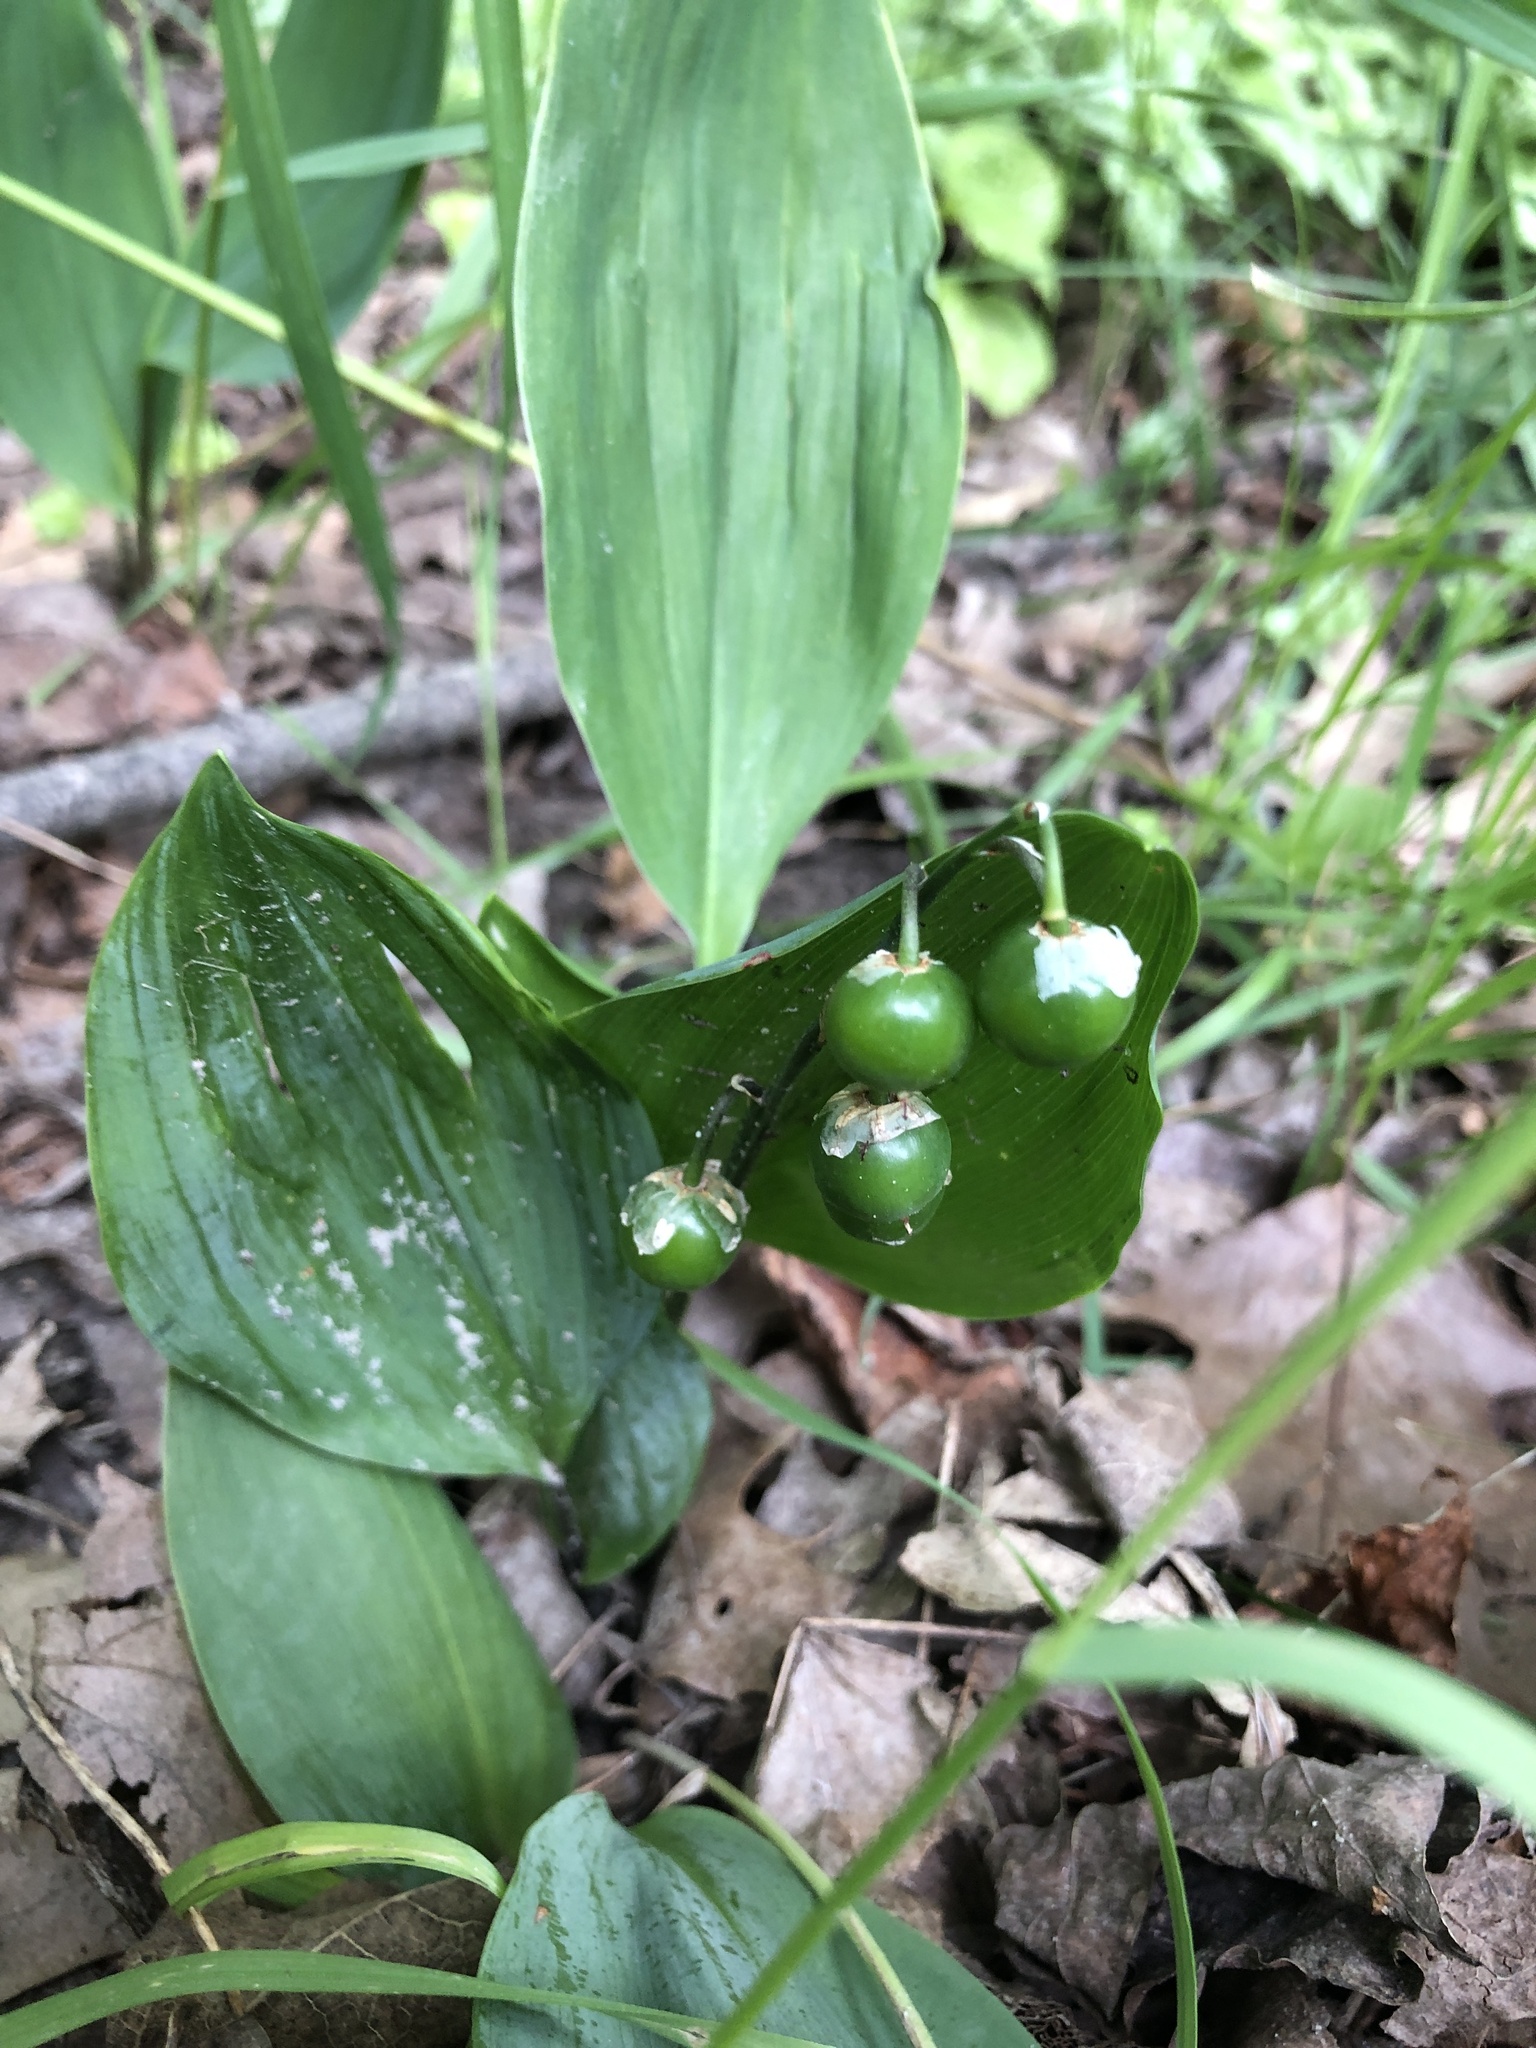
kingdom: Plantae
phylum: Tracheophyta
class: Liliopsida
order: Asparagales
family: Asparagaceae
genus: Convallaria
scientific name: Convallaria majalis
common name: Lily-of-the-valley
